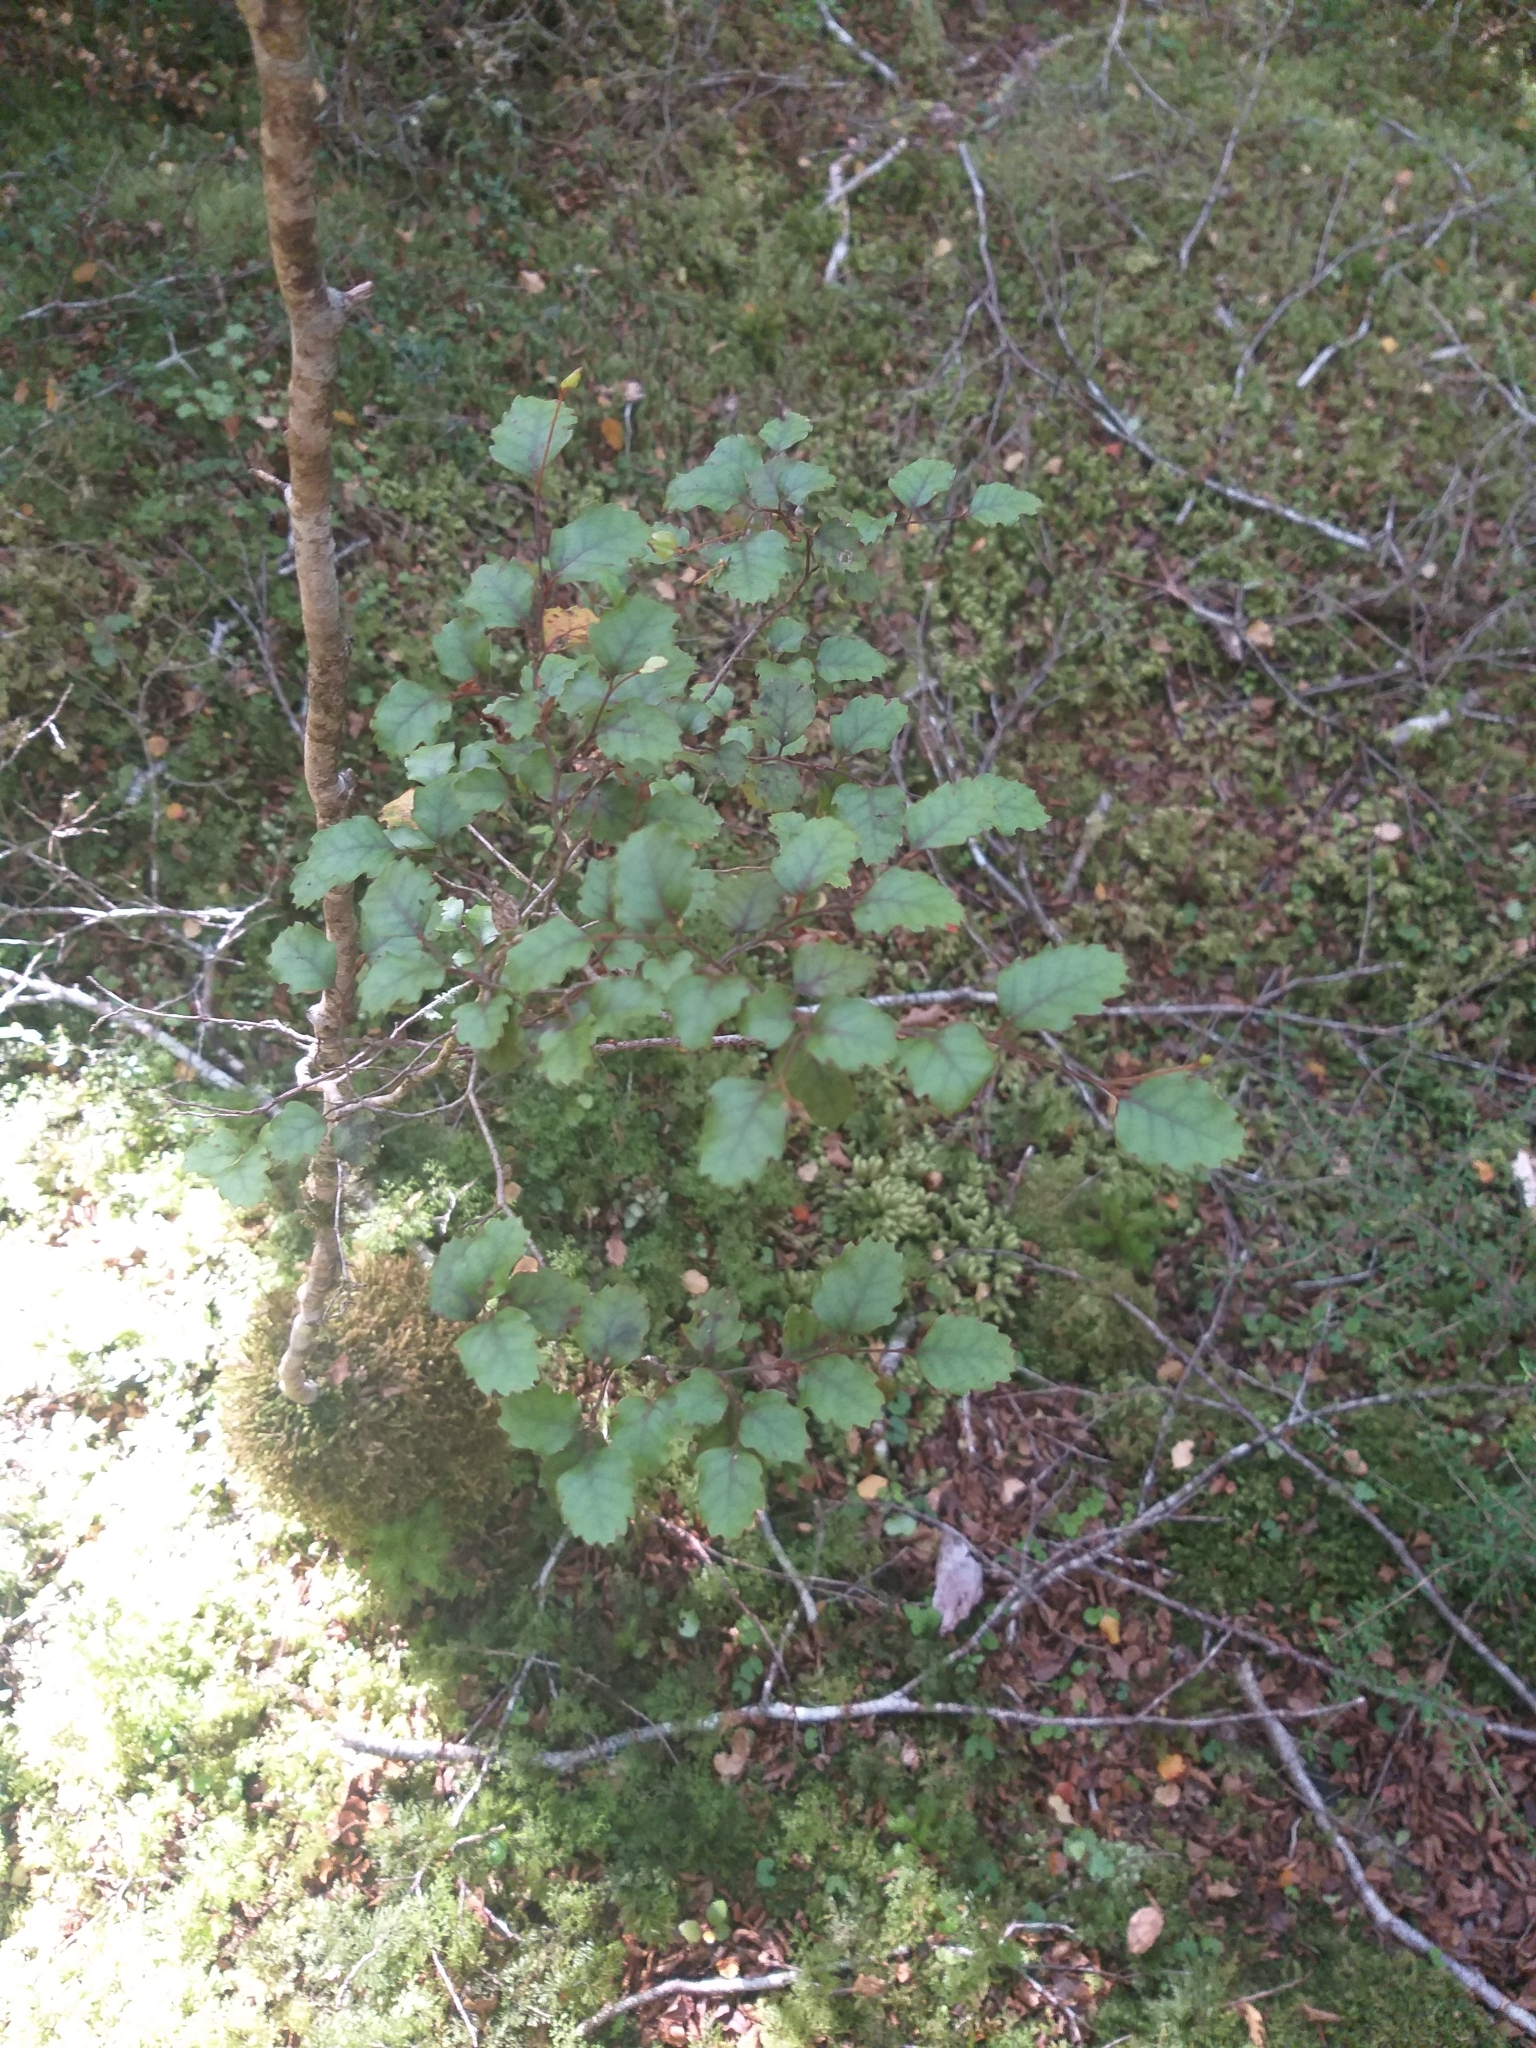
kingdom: Plantae
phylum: Tracheophyta
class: Magnoliopsida
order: Fagales
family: Nothofagaceae
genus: Nothofagus
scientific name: Nothofagus fusca
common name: Red beech
